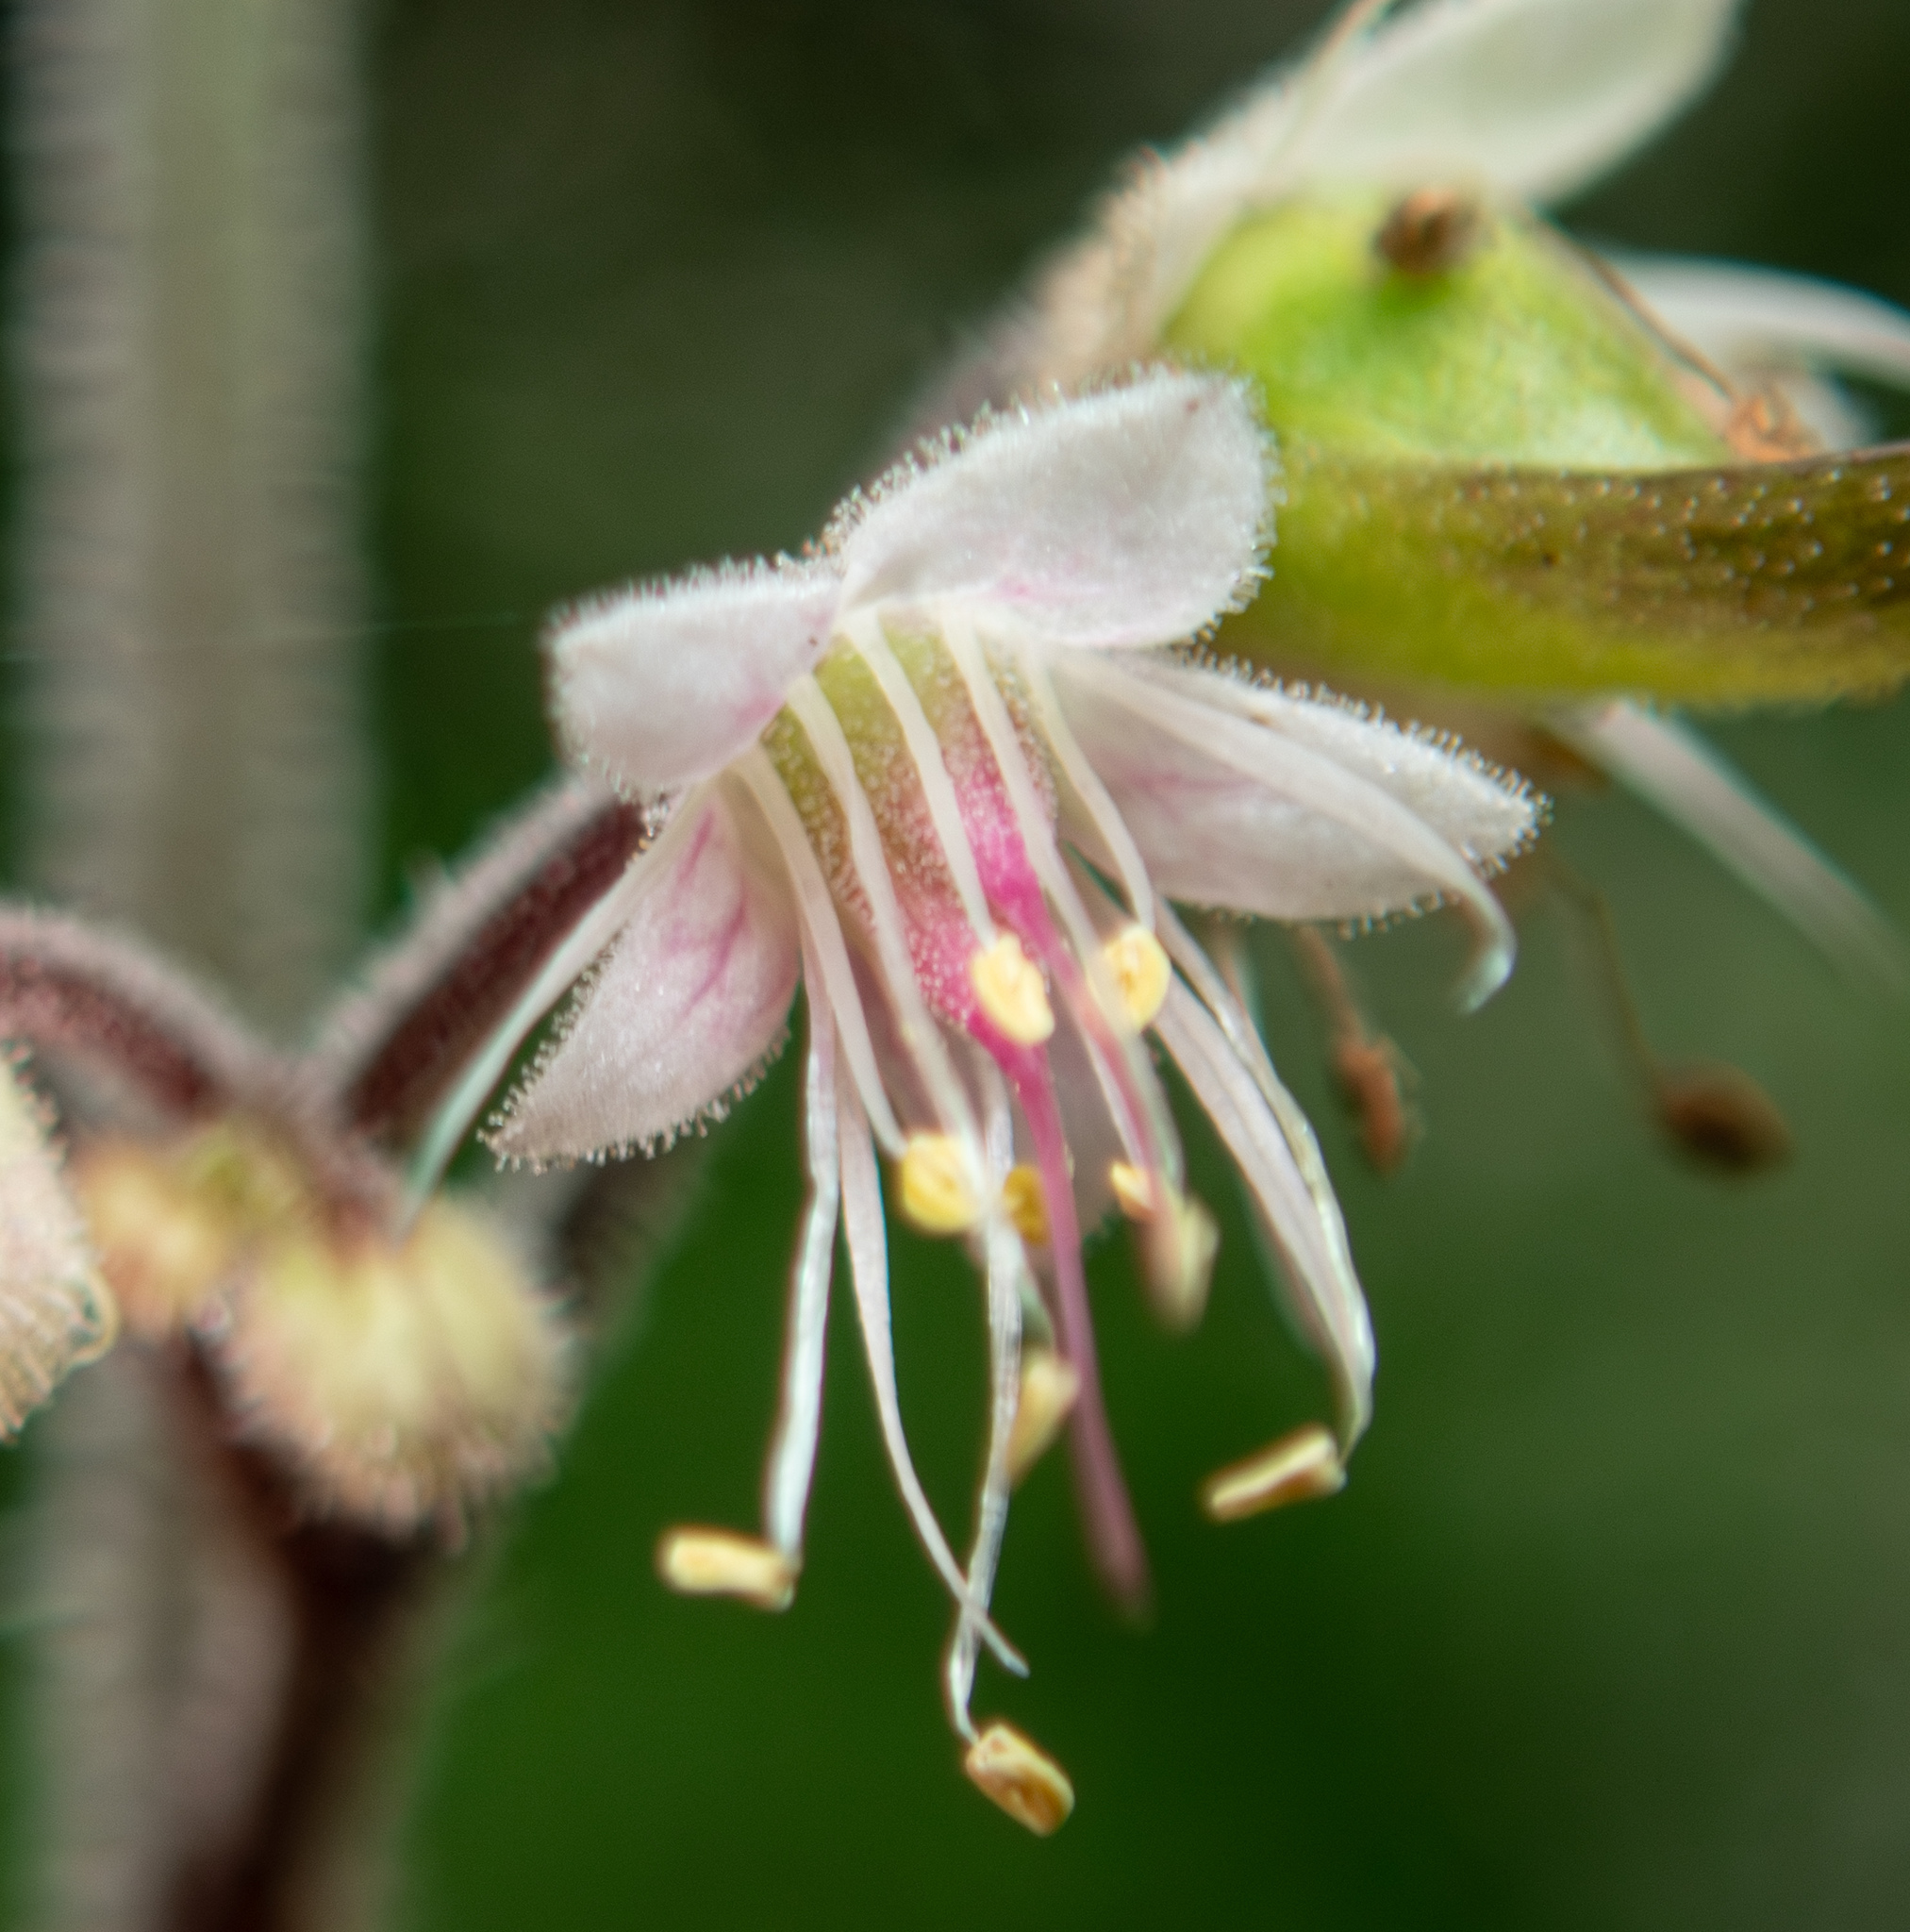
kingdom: Plantae
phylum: Tracheophyta
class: Magnoliopsida
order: Saxifragales
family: Saxifragaceae
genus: Tiarella
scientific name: Tiarella trifoliata
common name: Sugar-scoop
